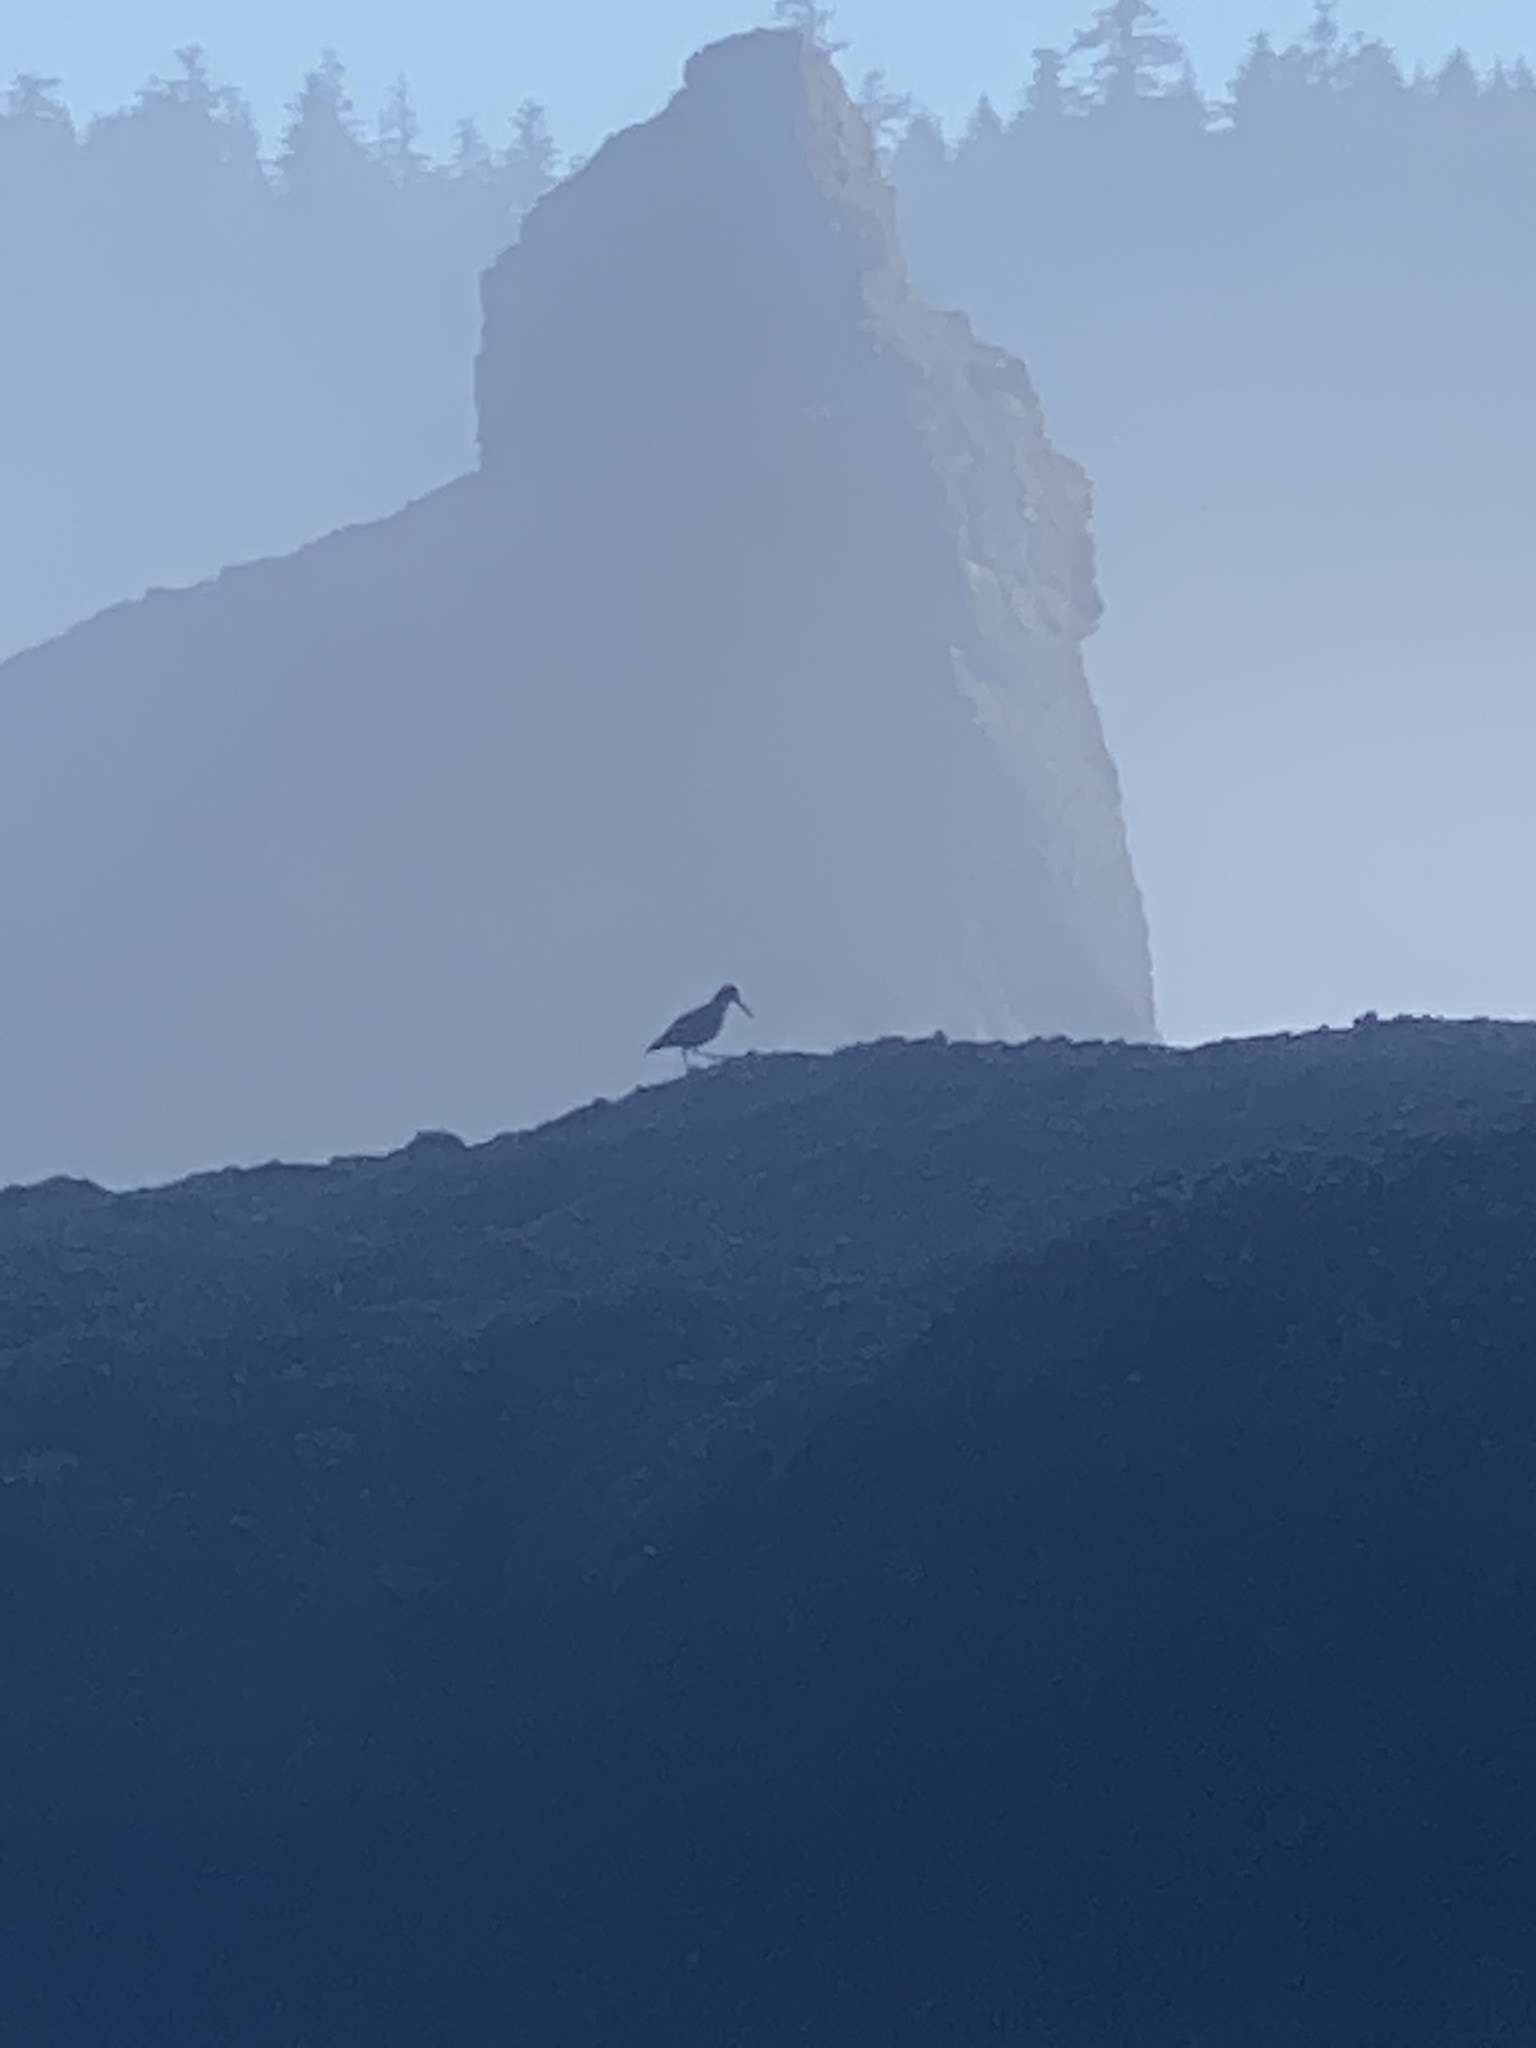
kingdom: Animalia
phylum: Chordata
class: Aves
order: Charadriiformes
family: Haematopodidae
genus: Haematopus
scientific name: Haematopus bachmani
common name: Black oystercatcher
